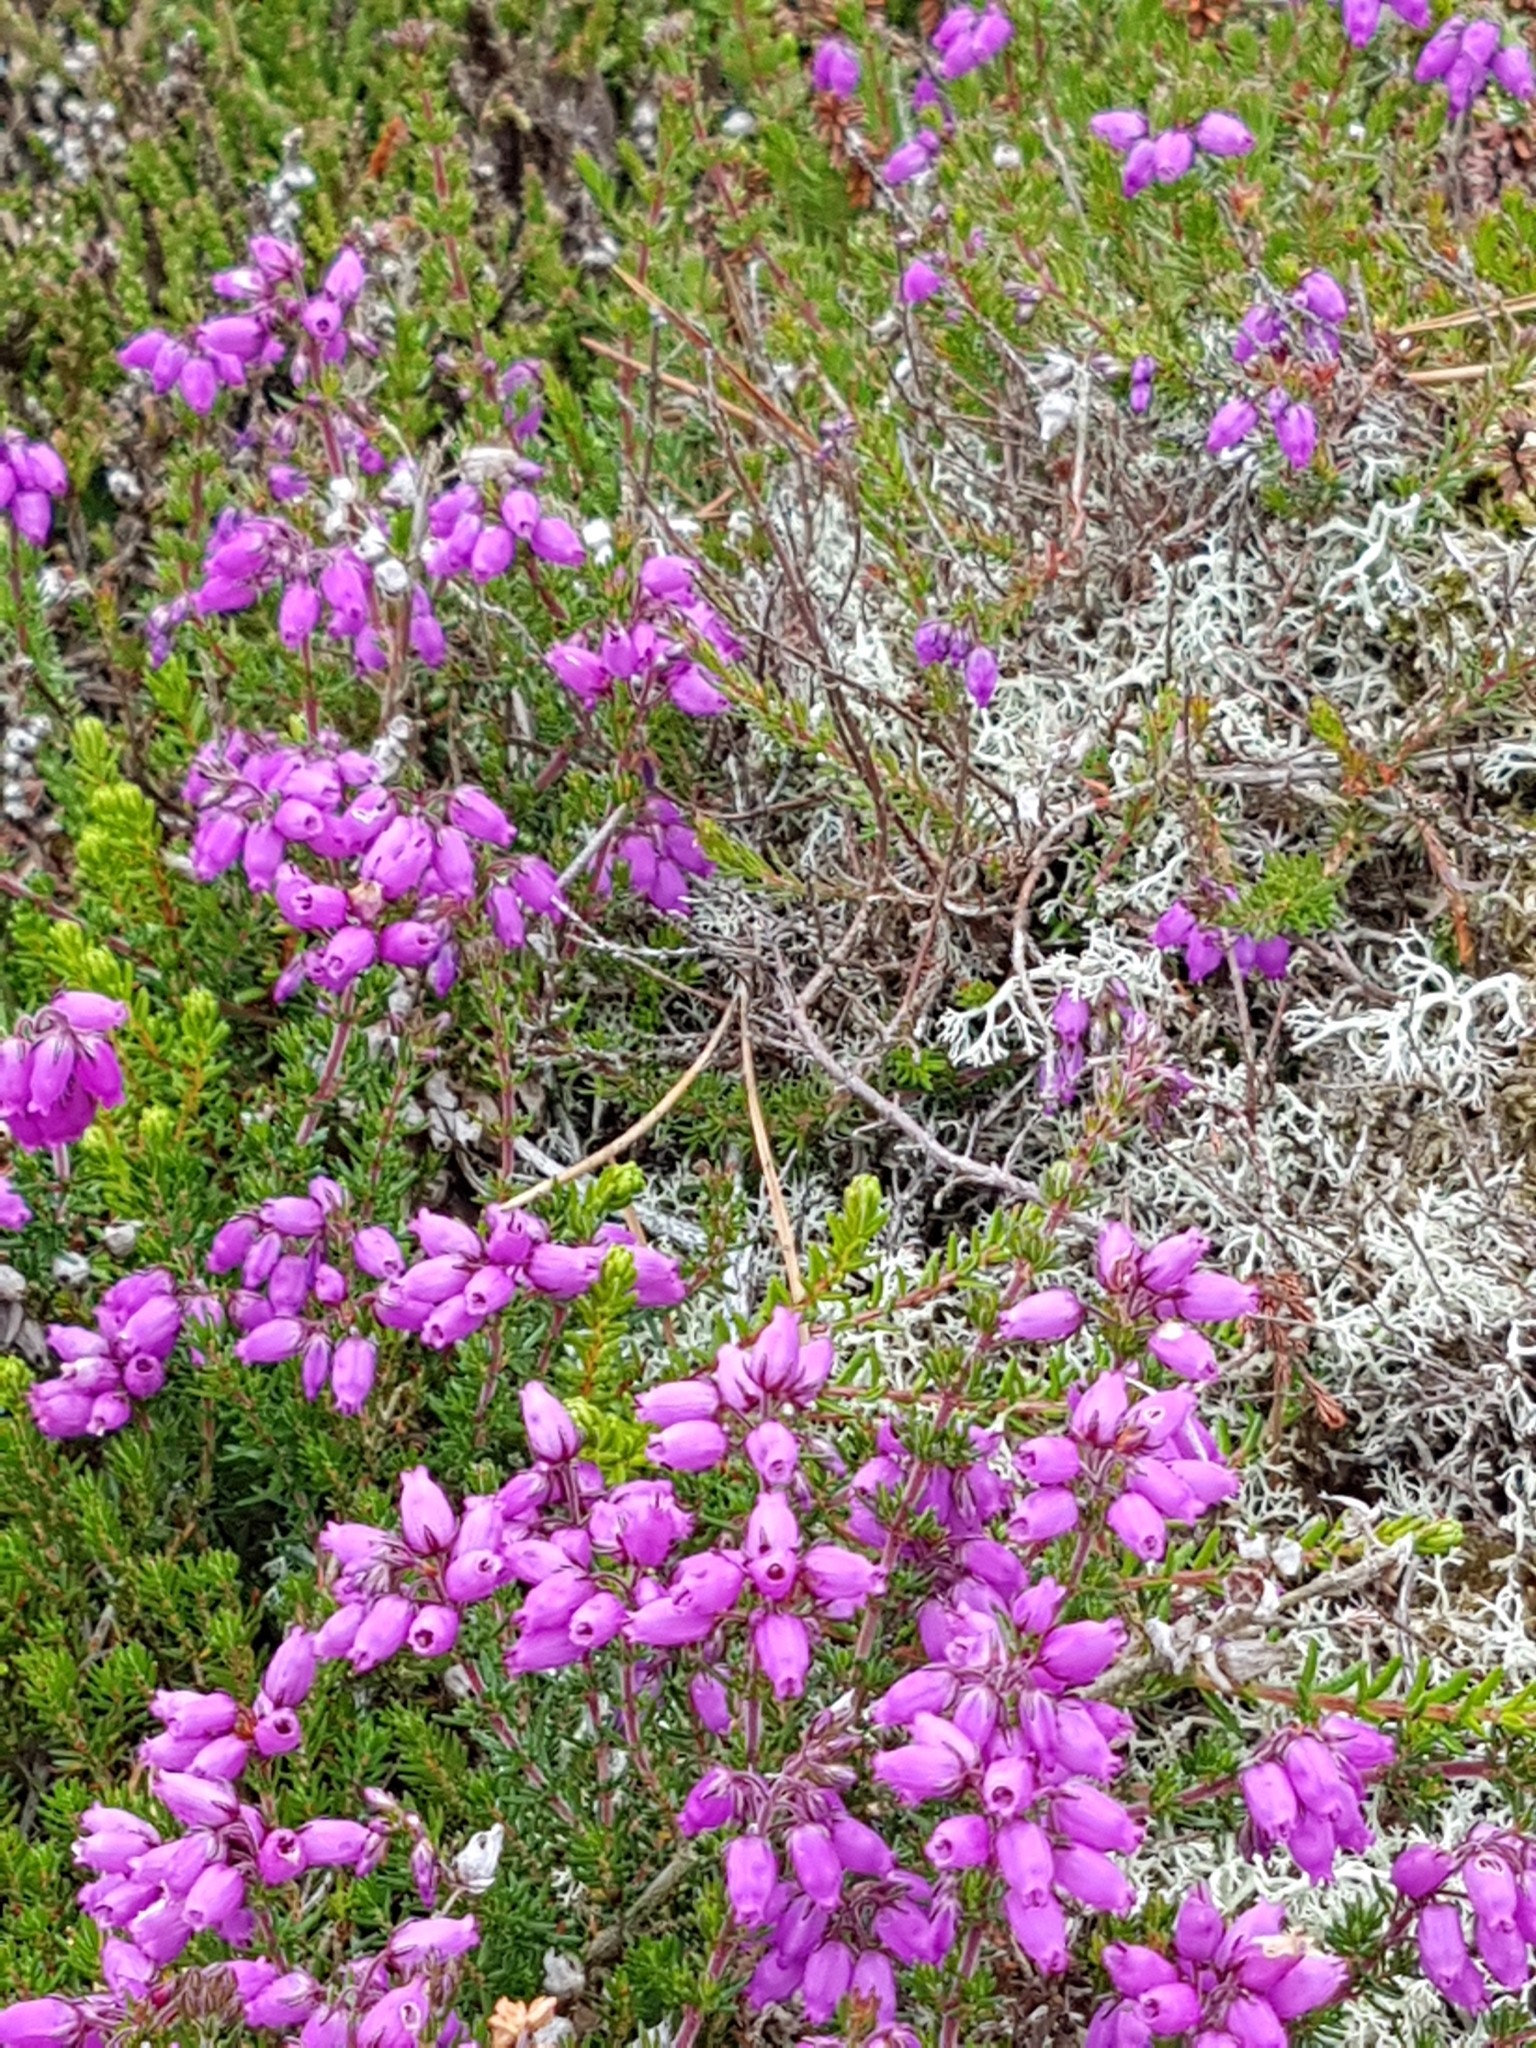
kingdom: Plantae
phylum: Tracheophyta
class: Magnoliopsida
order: Ericales
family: Ericaceae
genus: Erica
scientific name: Erica cinerea
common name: Bell heather
